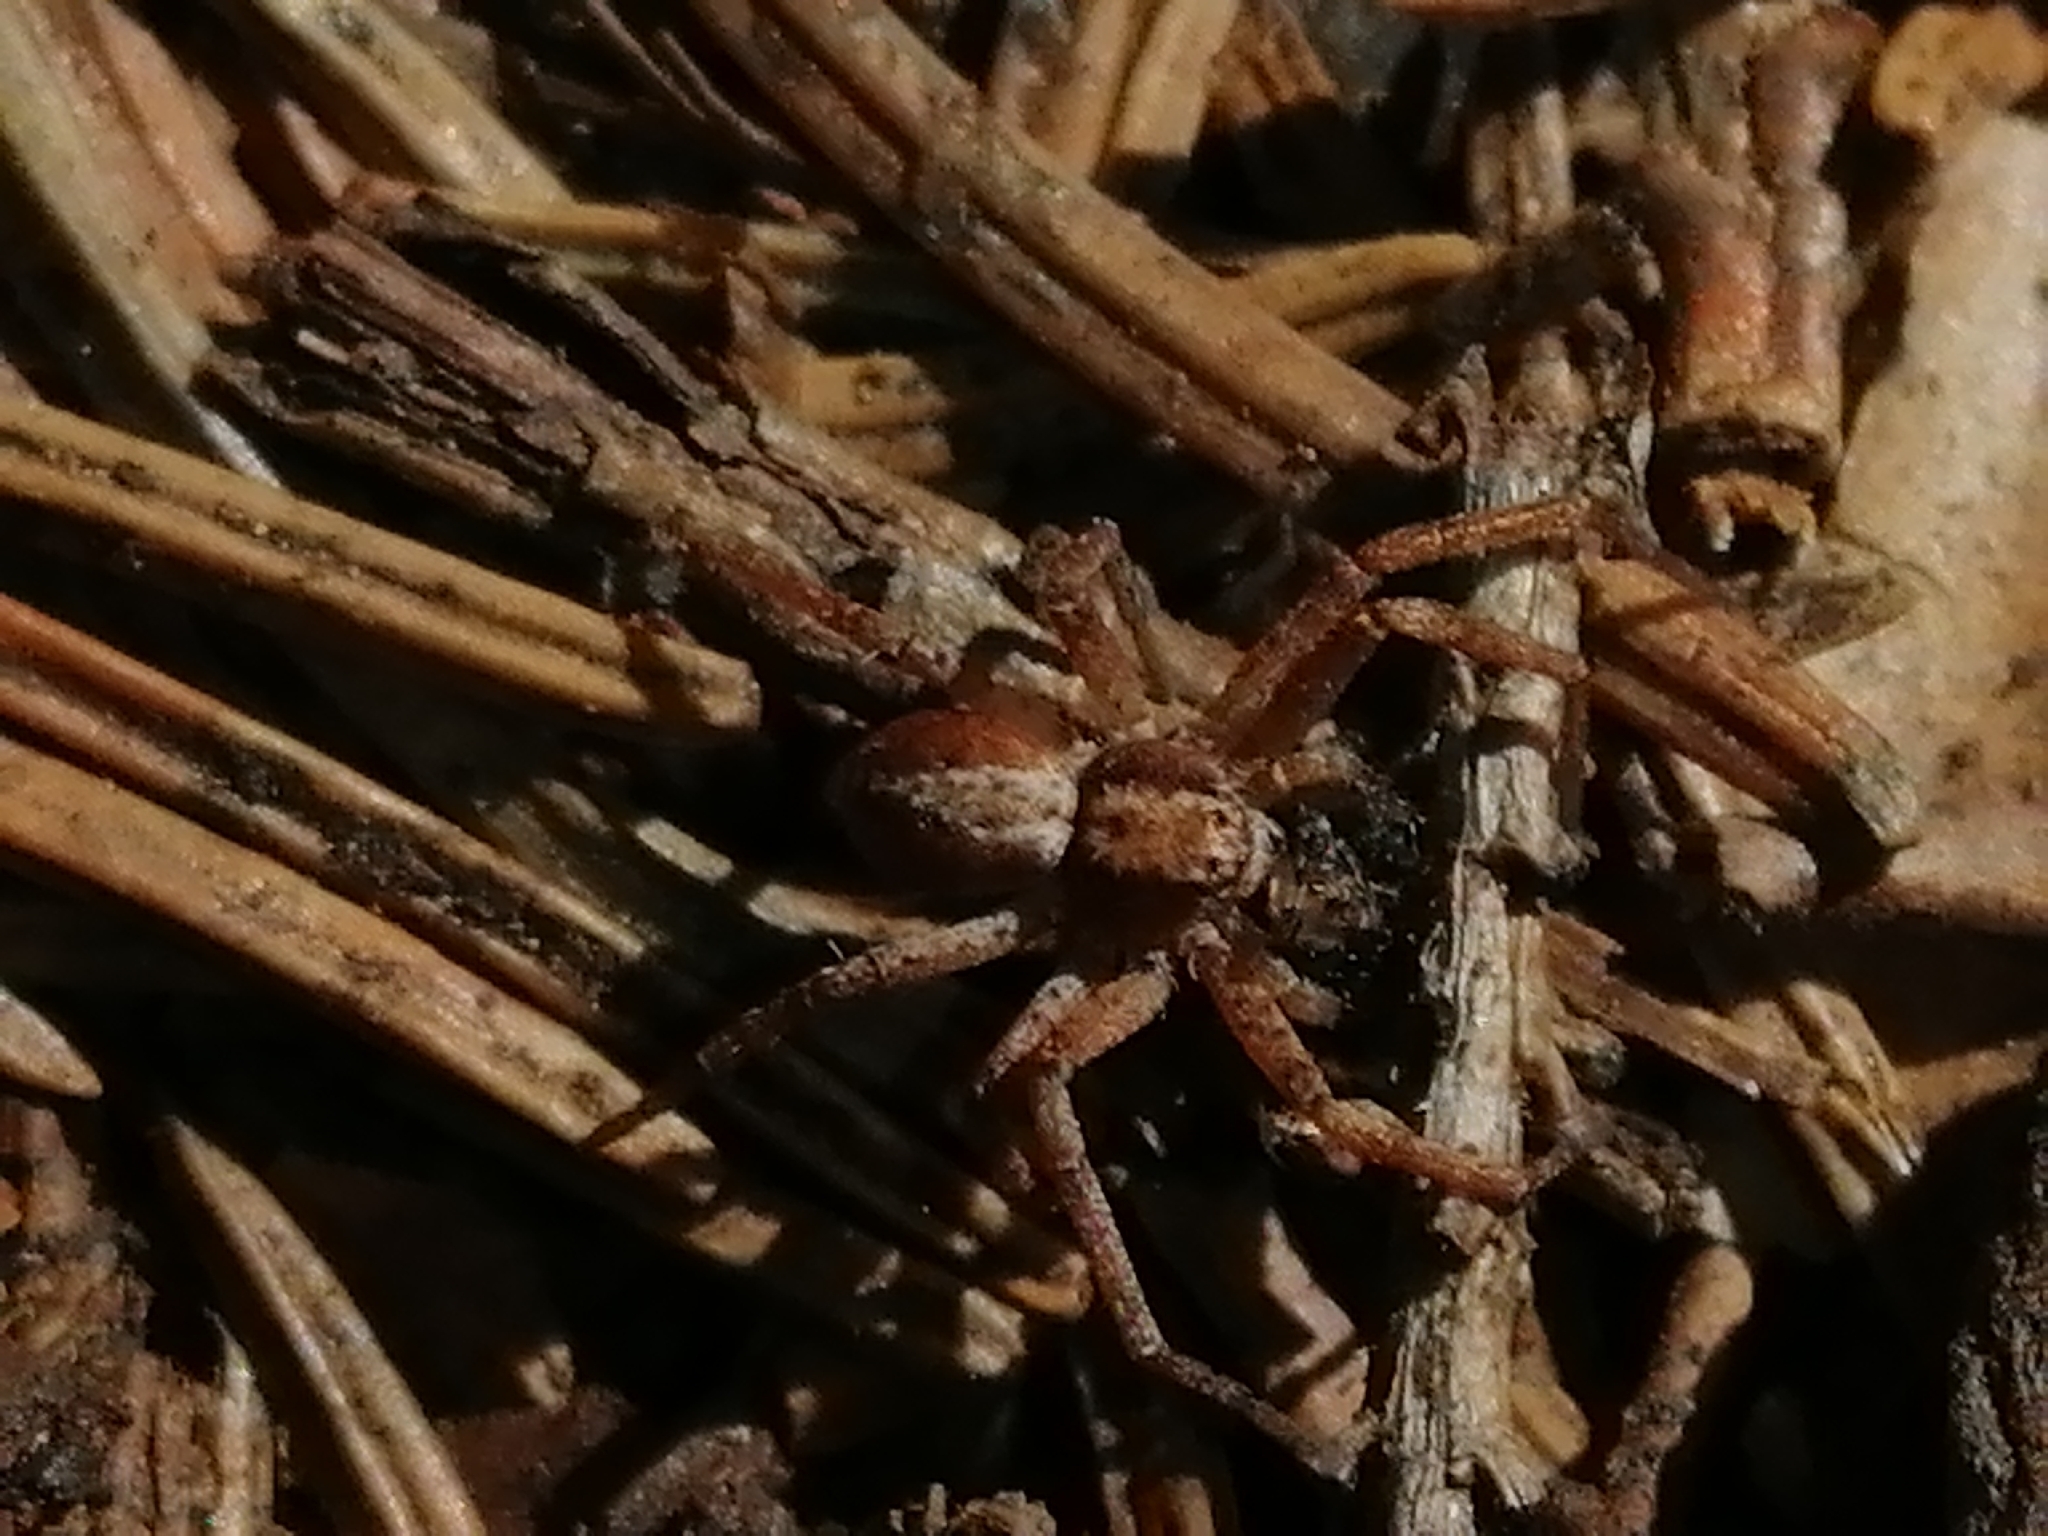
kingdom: Animalia
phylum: Arthropoda
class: Arachnida
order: Araneae
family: Philodromidae
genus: Philodromus
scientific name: Philodromus
